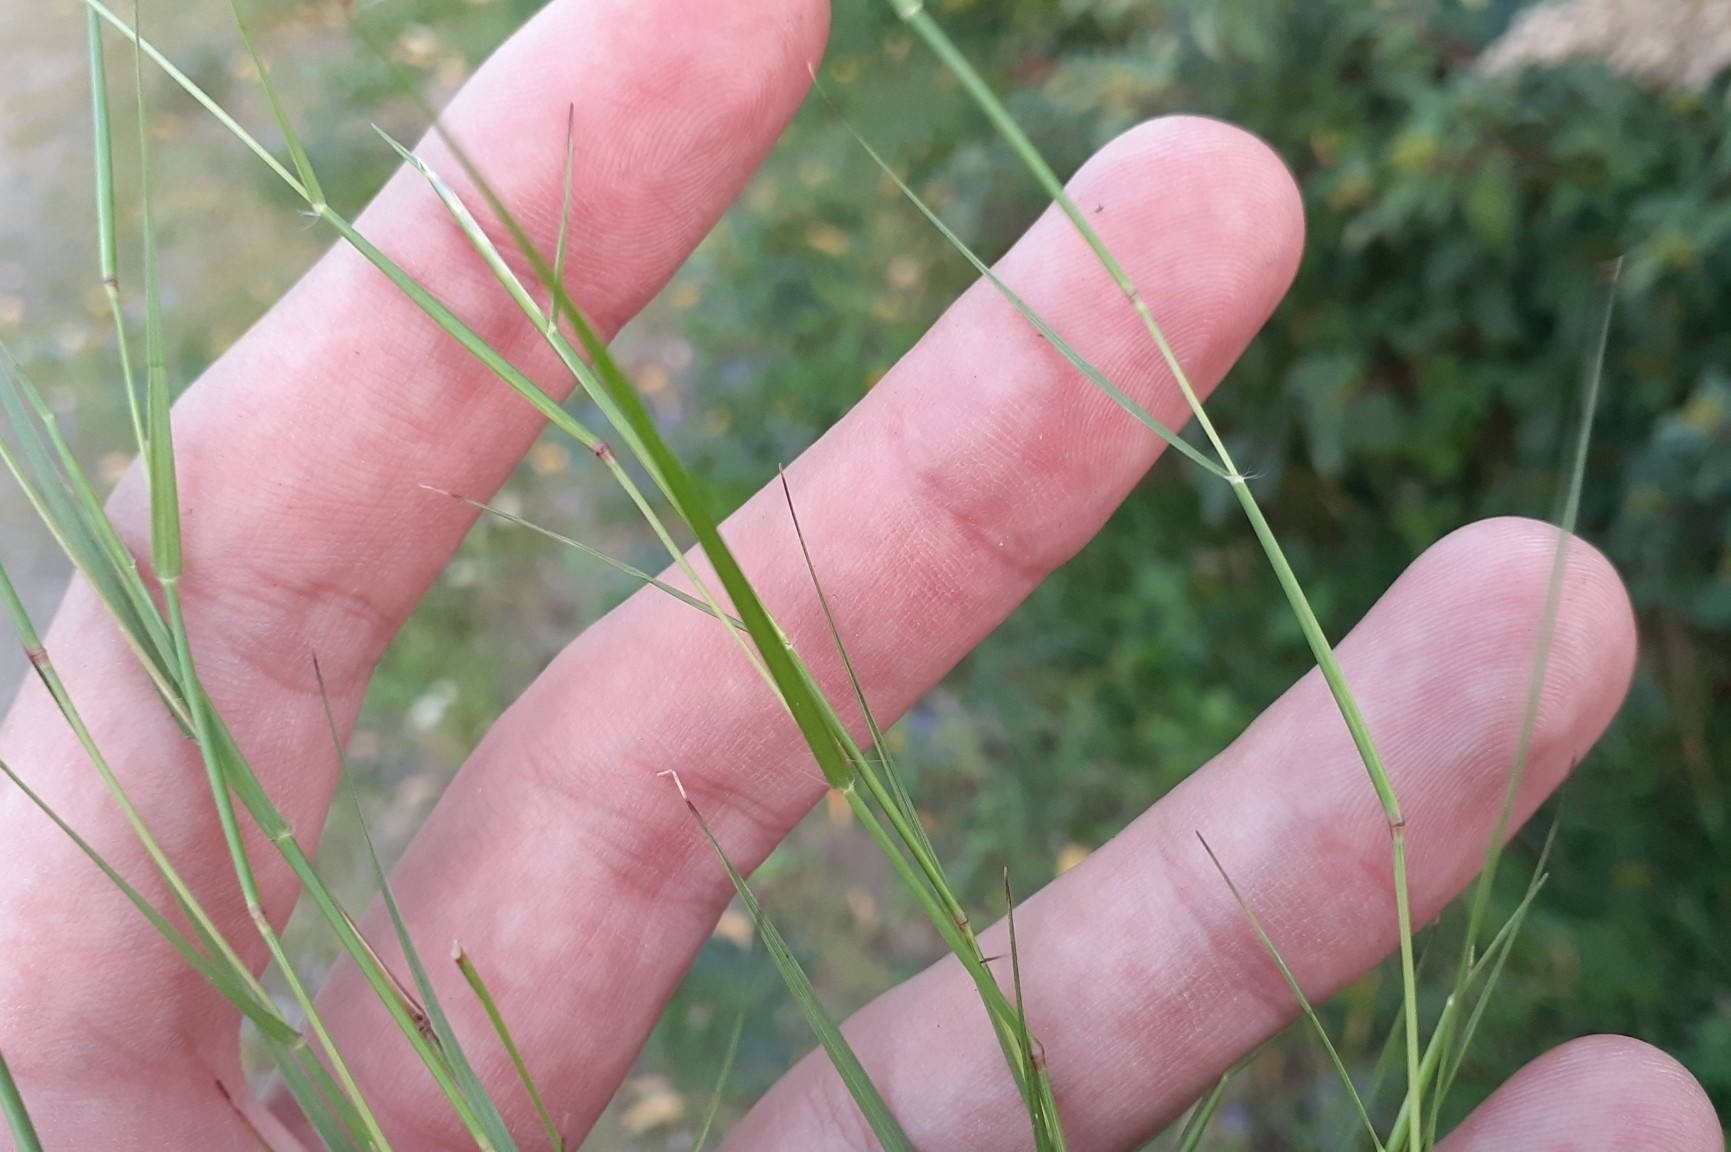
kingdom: Plantae
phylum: Tracheophyta
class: Liliopsida
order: Poales
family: Poaceae
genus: Sporobolus
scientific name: Sporobolus vaginiflorus
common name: Poverty dropseed
